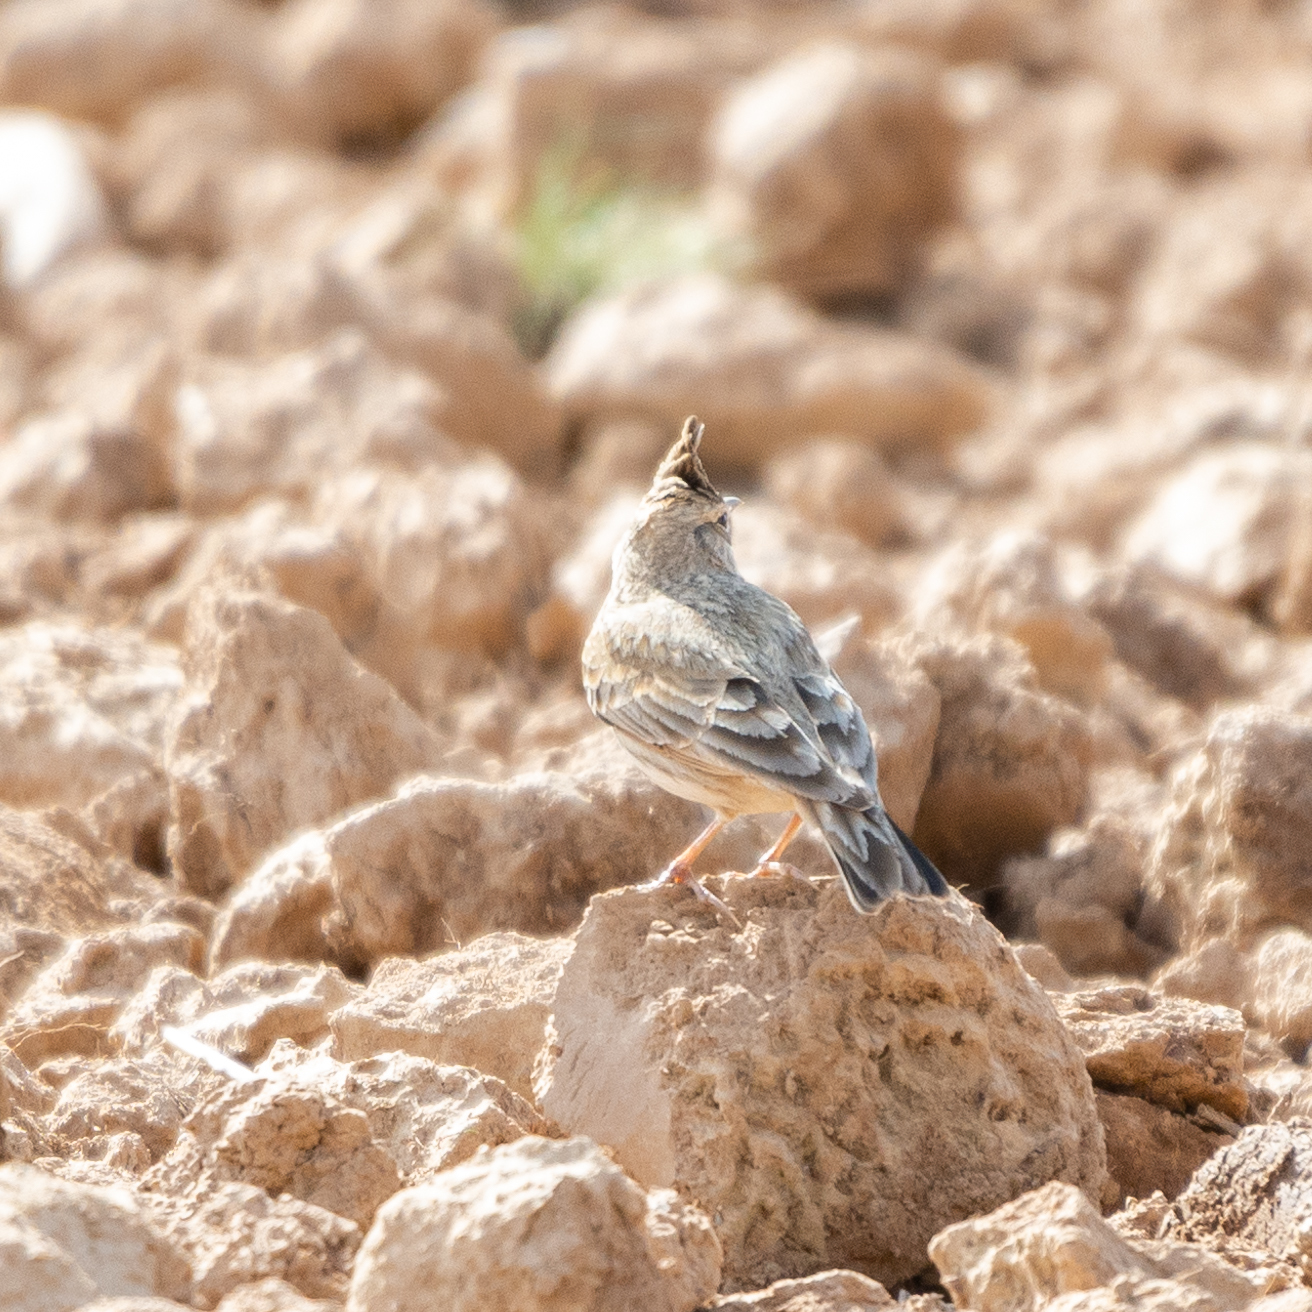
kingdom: Animalia
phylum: Chordata
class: Aves
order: Passeriformes
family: Alaudidae
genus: Galerida
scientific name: Galerida cristata
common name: Crested lark
